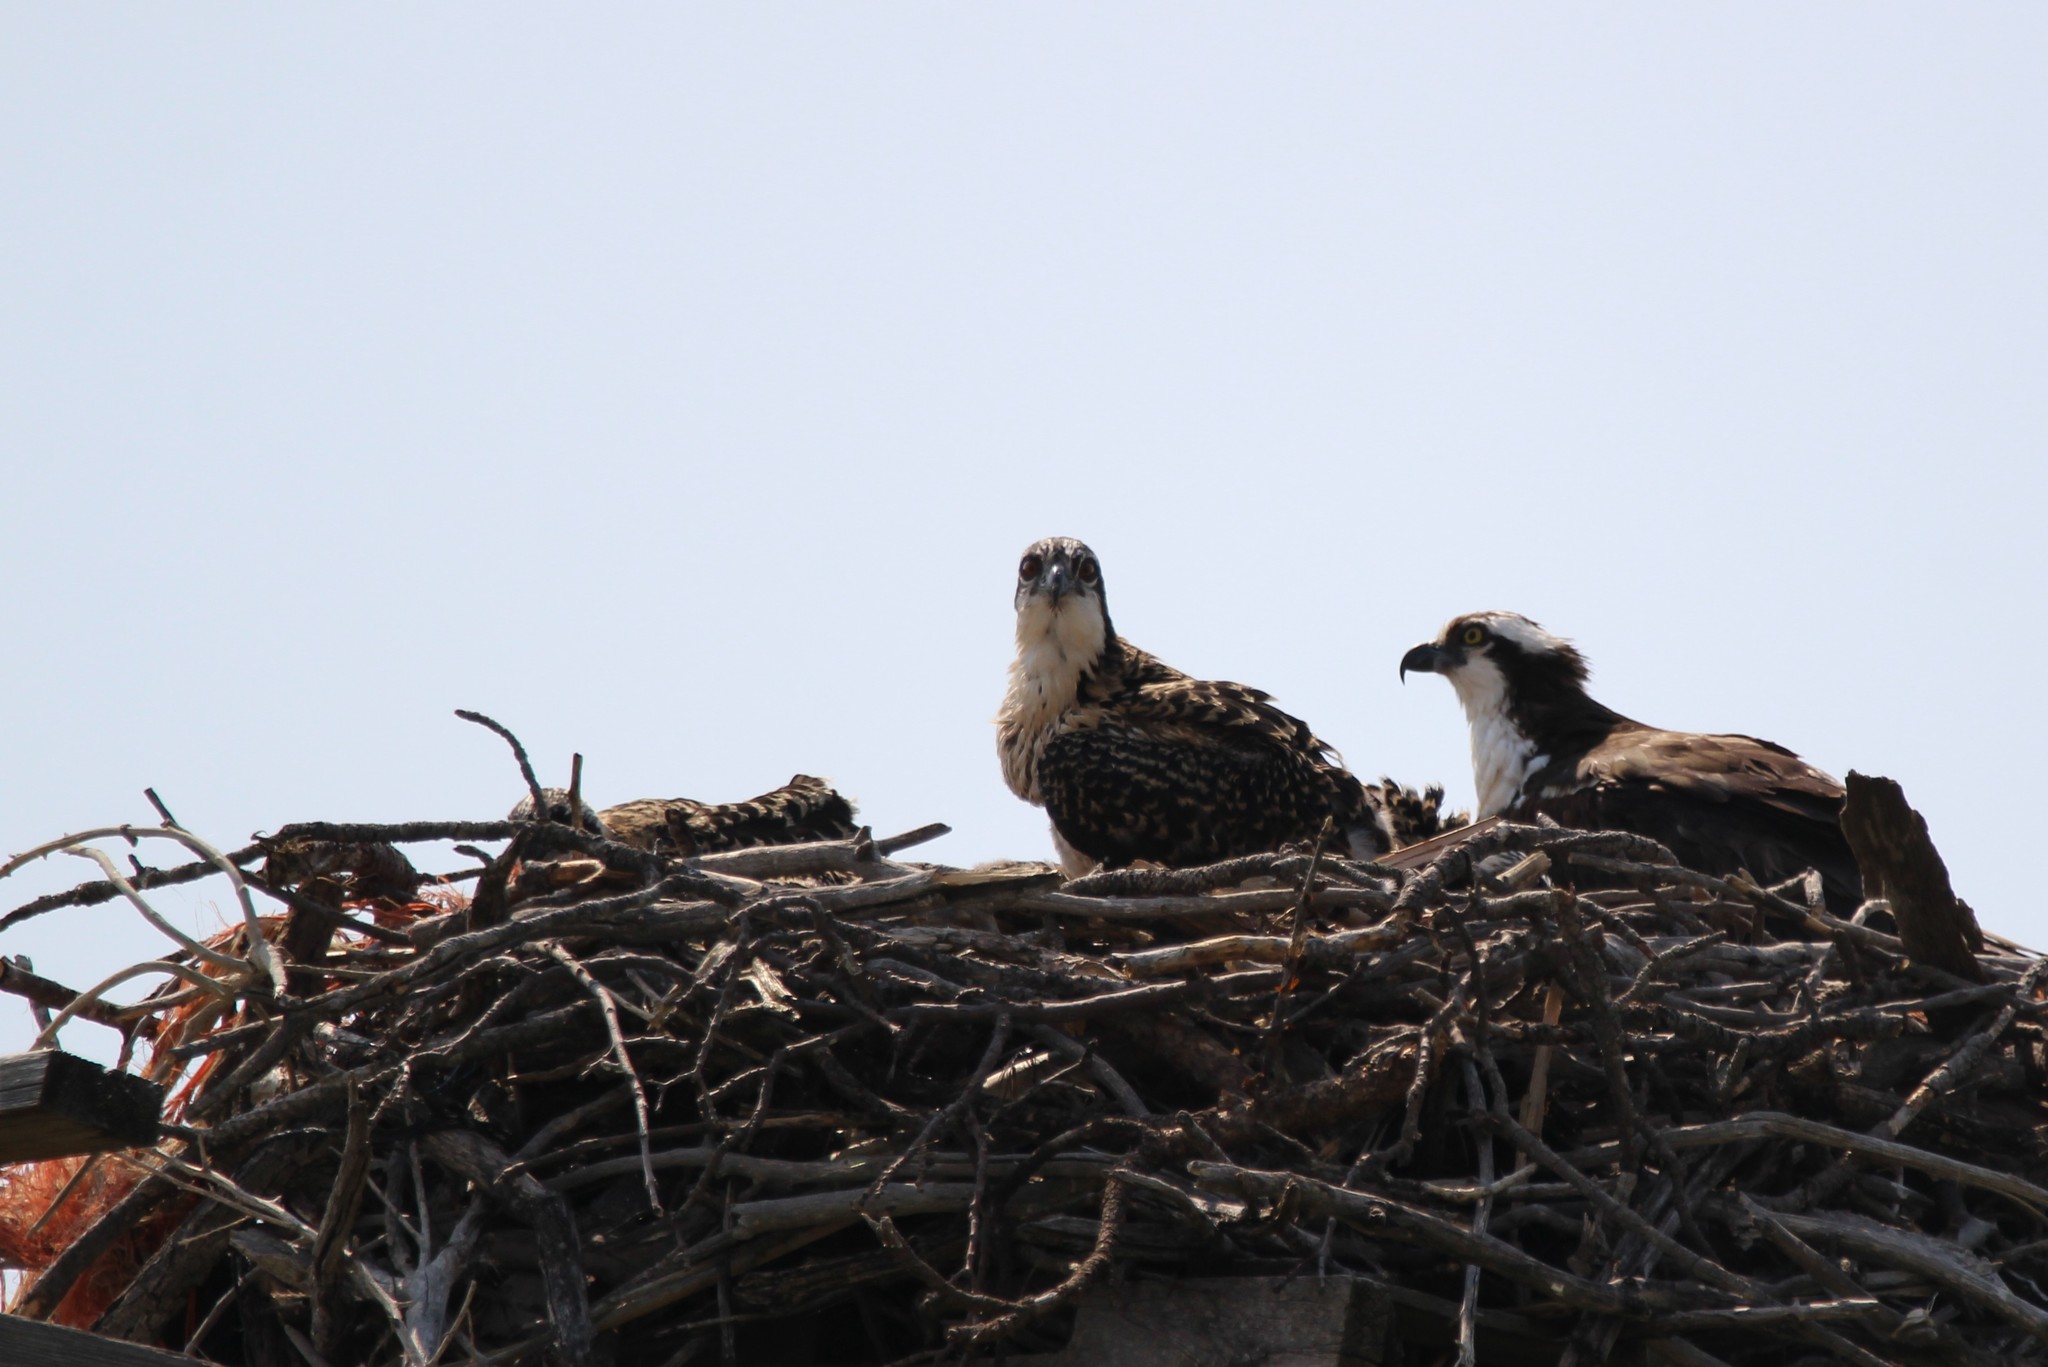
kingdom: Animalia
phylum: Chordata
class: Aves
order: Accipitriformes
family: Pandionidae
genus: Pandion
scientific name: Pandion haliaetus
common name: Osprey
